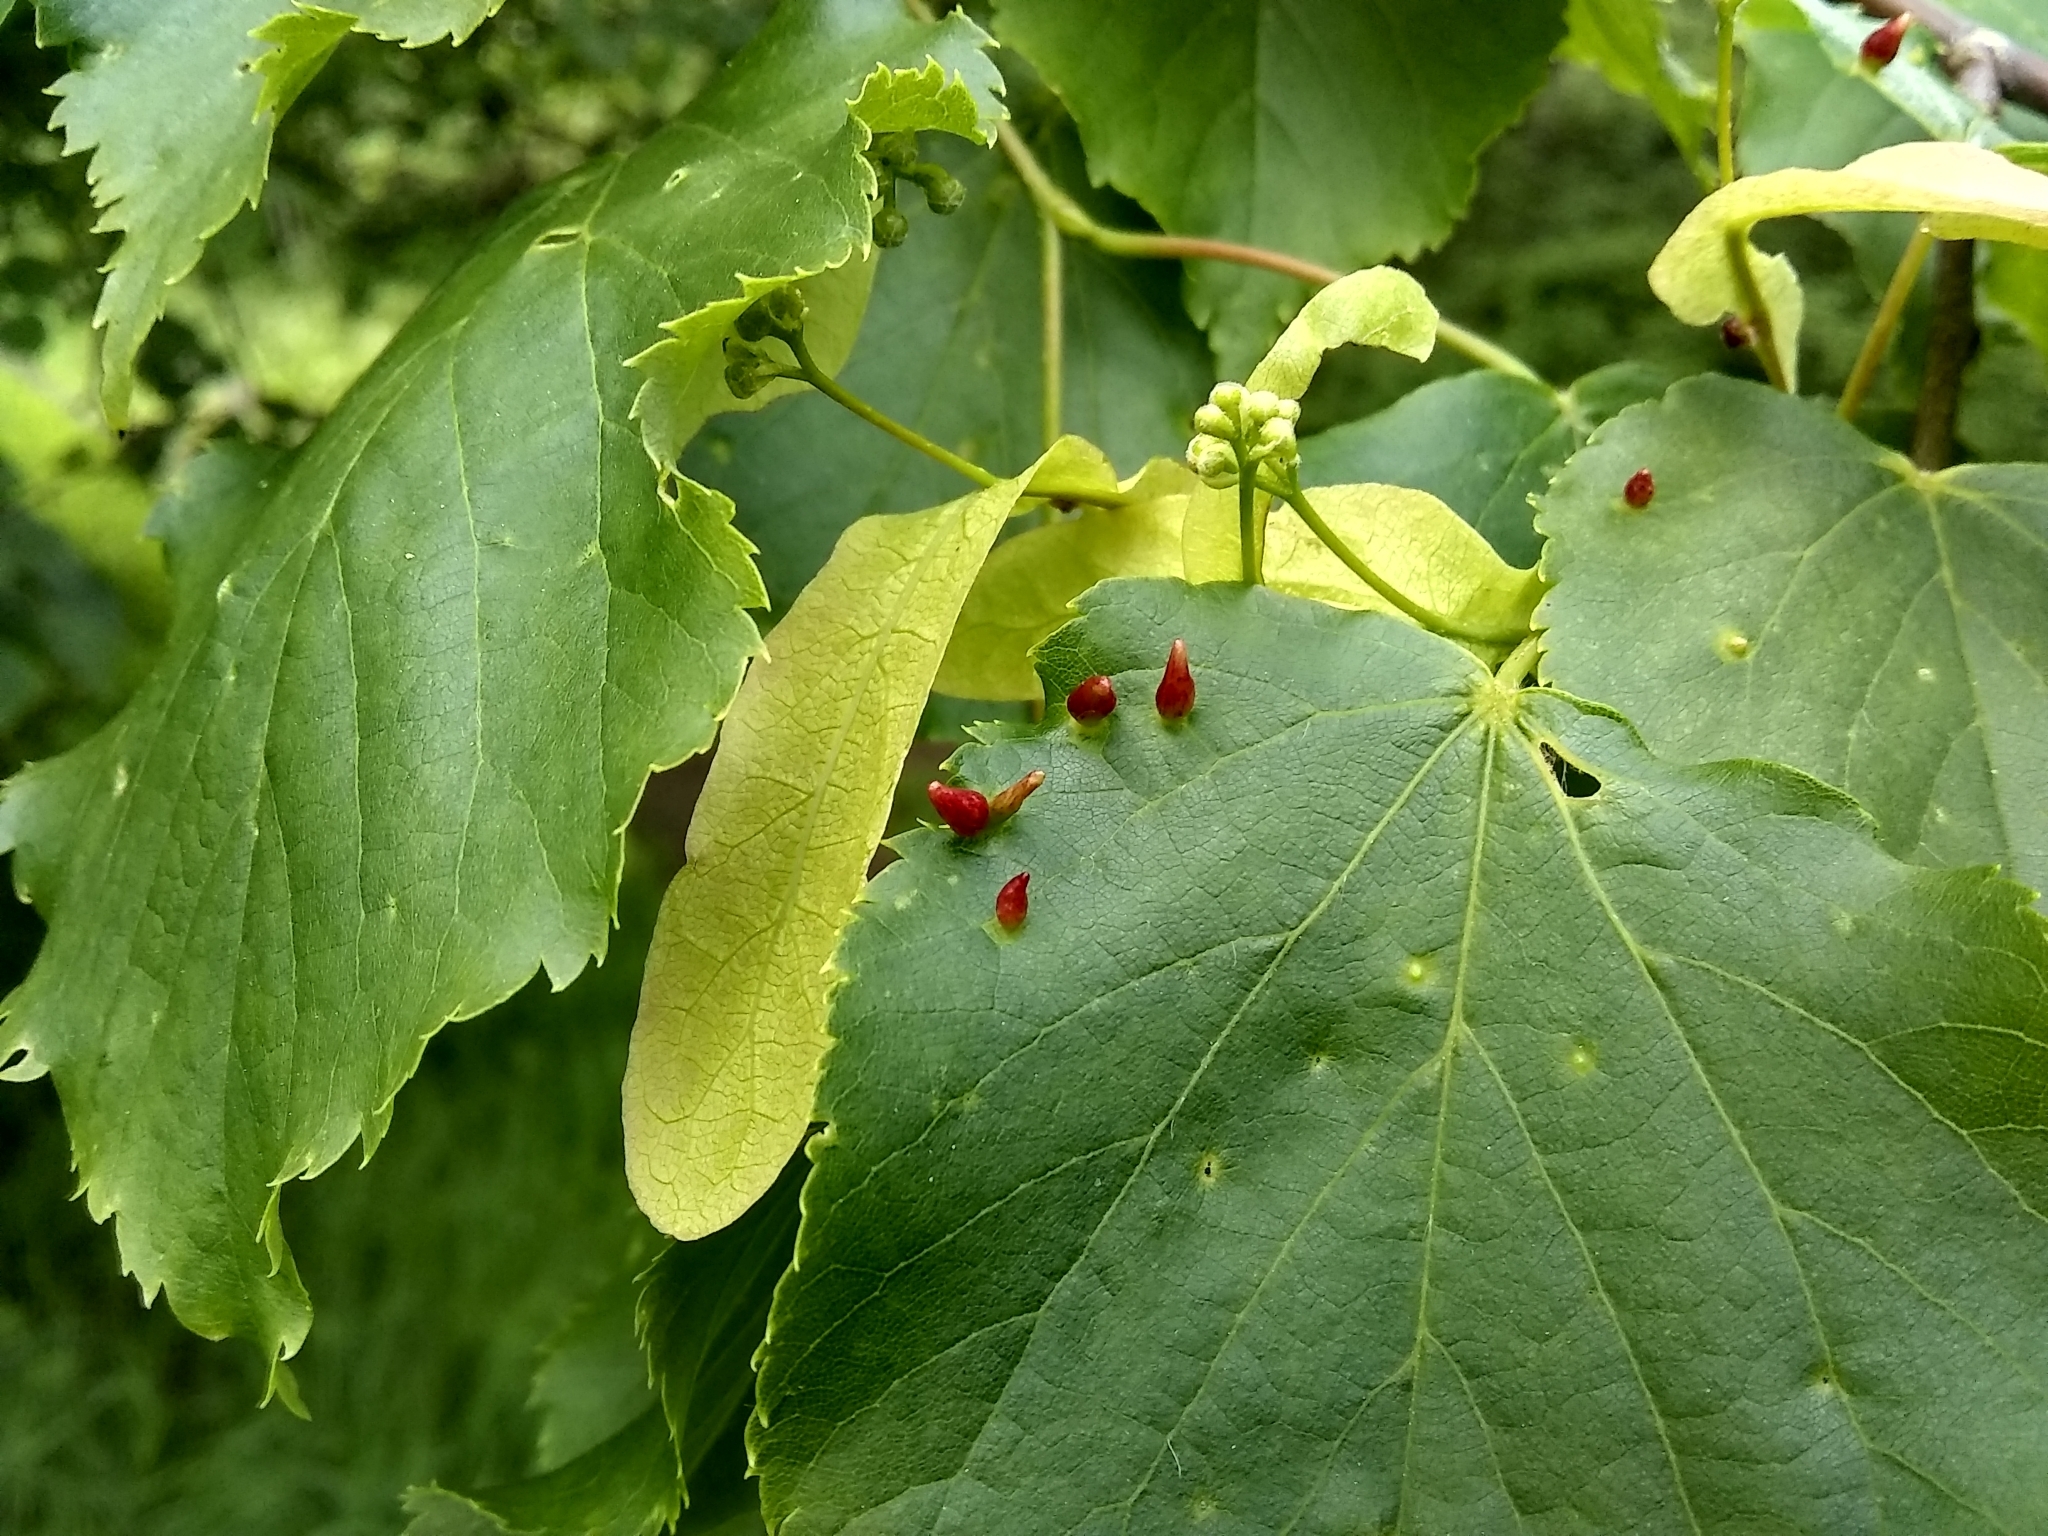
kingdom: Animalia
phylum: Arthropoda
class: Arachnida
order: Trombidiformes
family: Eriophyidae
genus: Eriophyes
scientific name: Eriophyes tiliae
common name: Red nail gall mite
